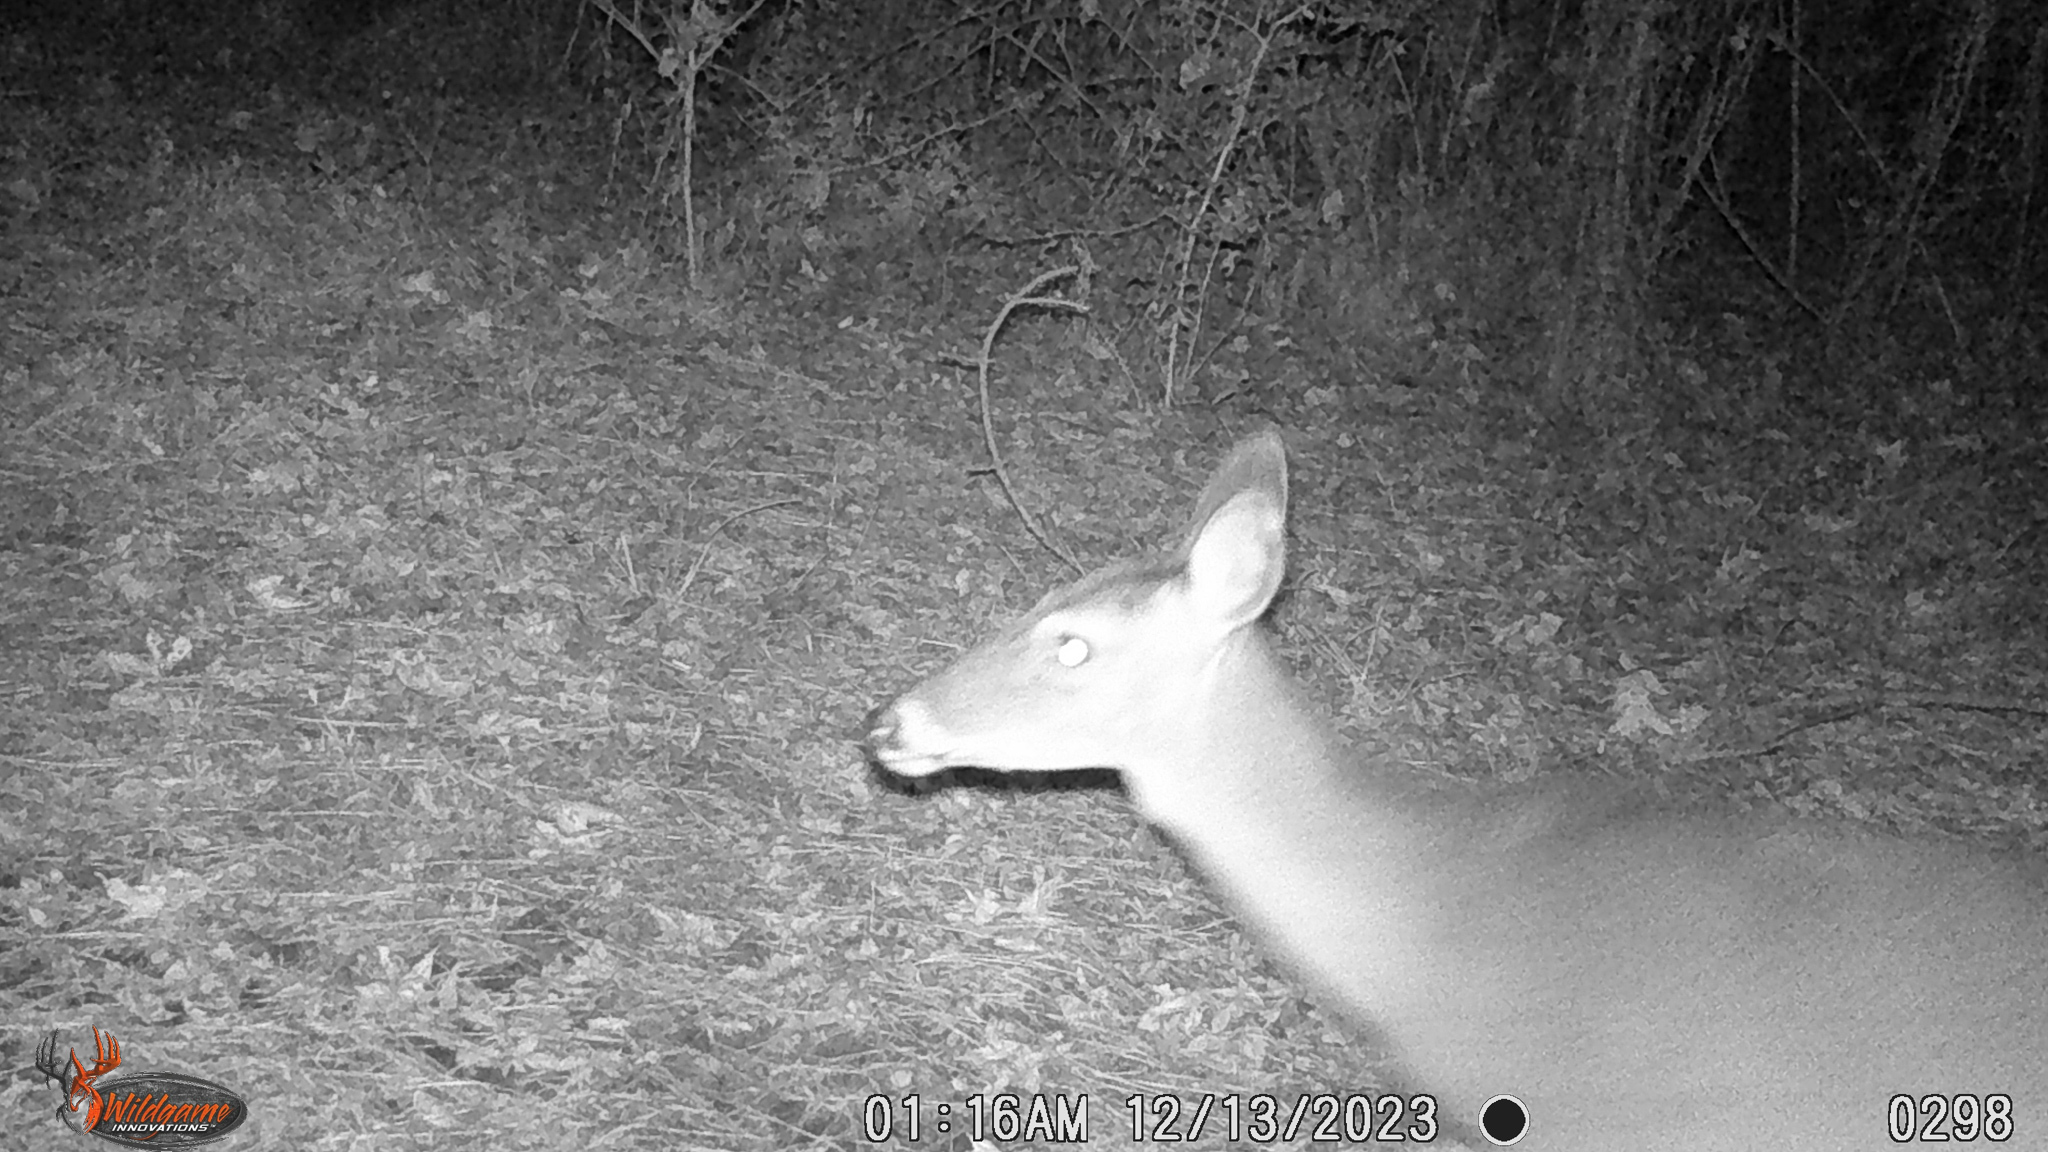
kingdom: Animalia
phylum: Chordata
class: Mammalia
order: Artiodactyla
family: Cervidae
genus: Odocoileus
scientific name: Odocoileus virginianus
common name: White-tailed deer
